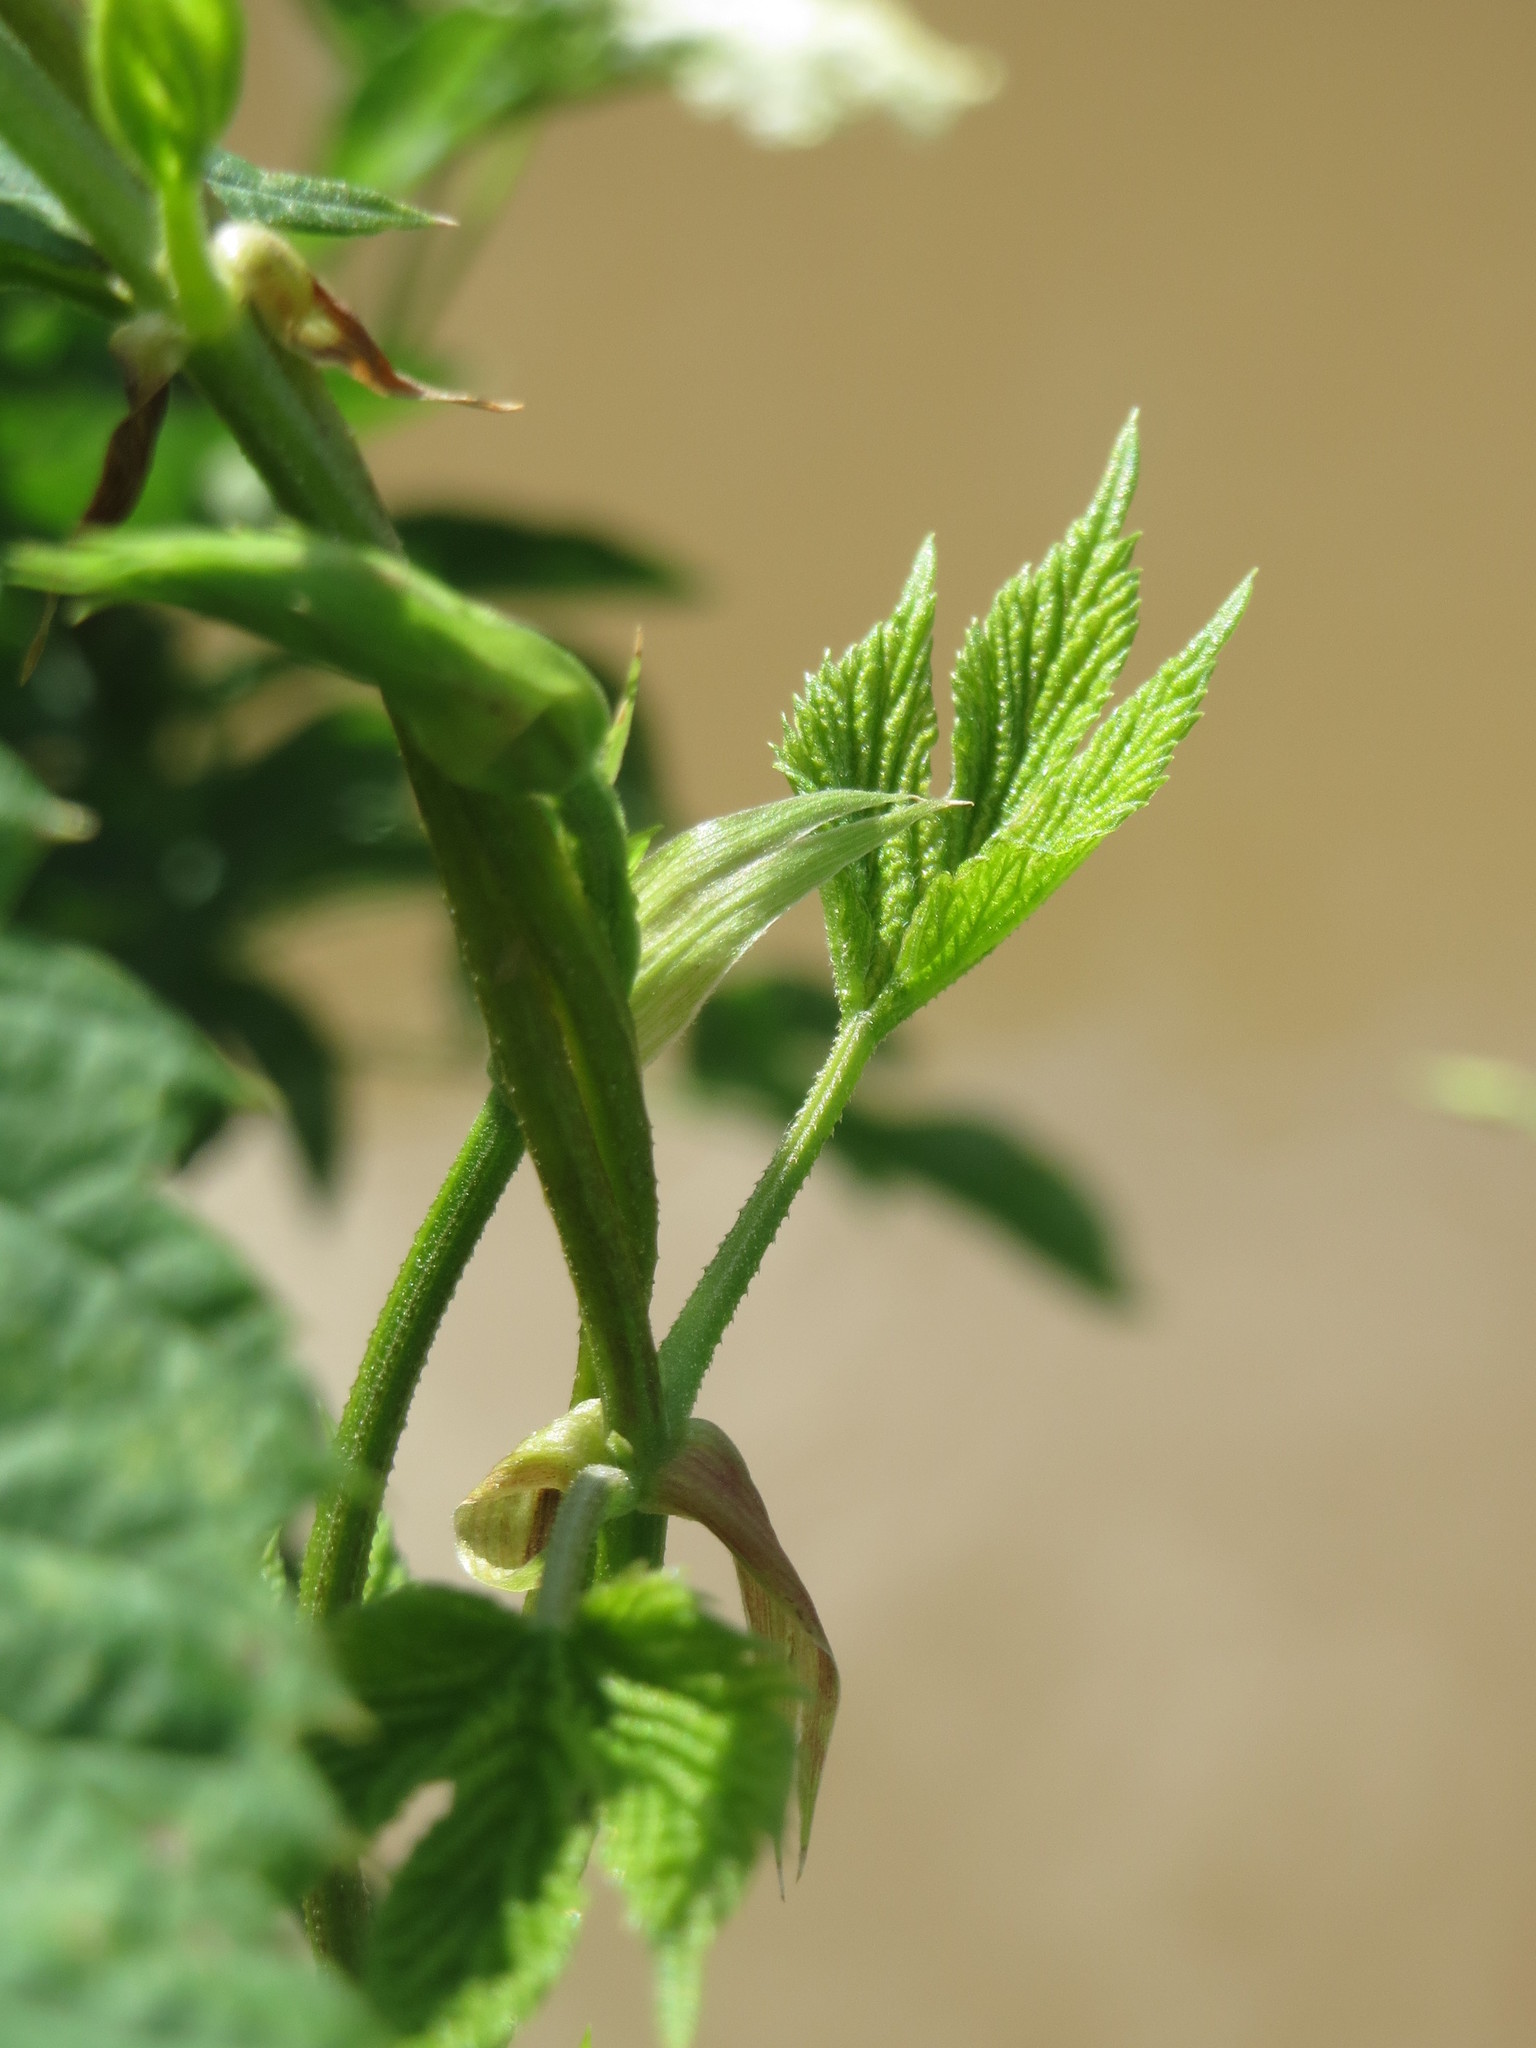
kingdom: Plantae
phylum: Tracheophyta
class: Magnoliopsida
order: Rosales
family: Cannabaceae
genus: Humulus
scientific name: Humulus lupulus
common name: Hop
